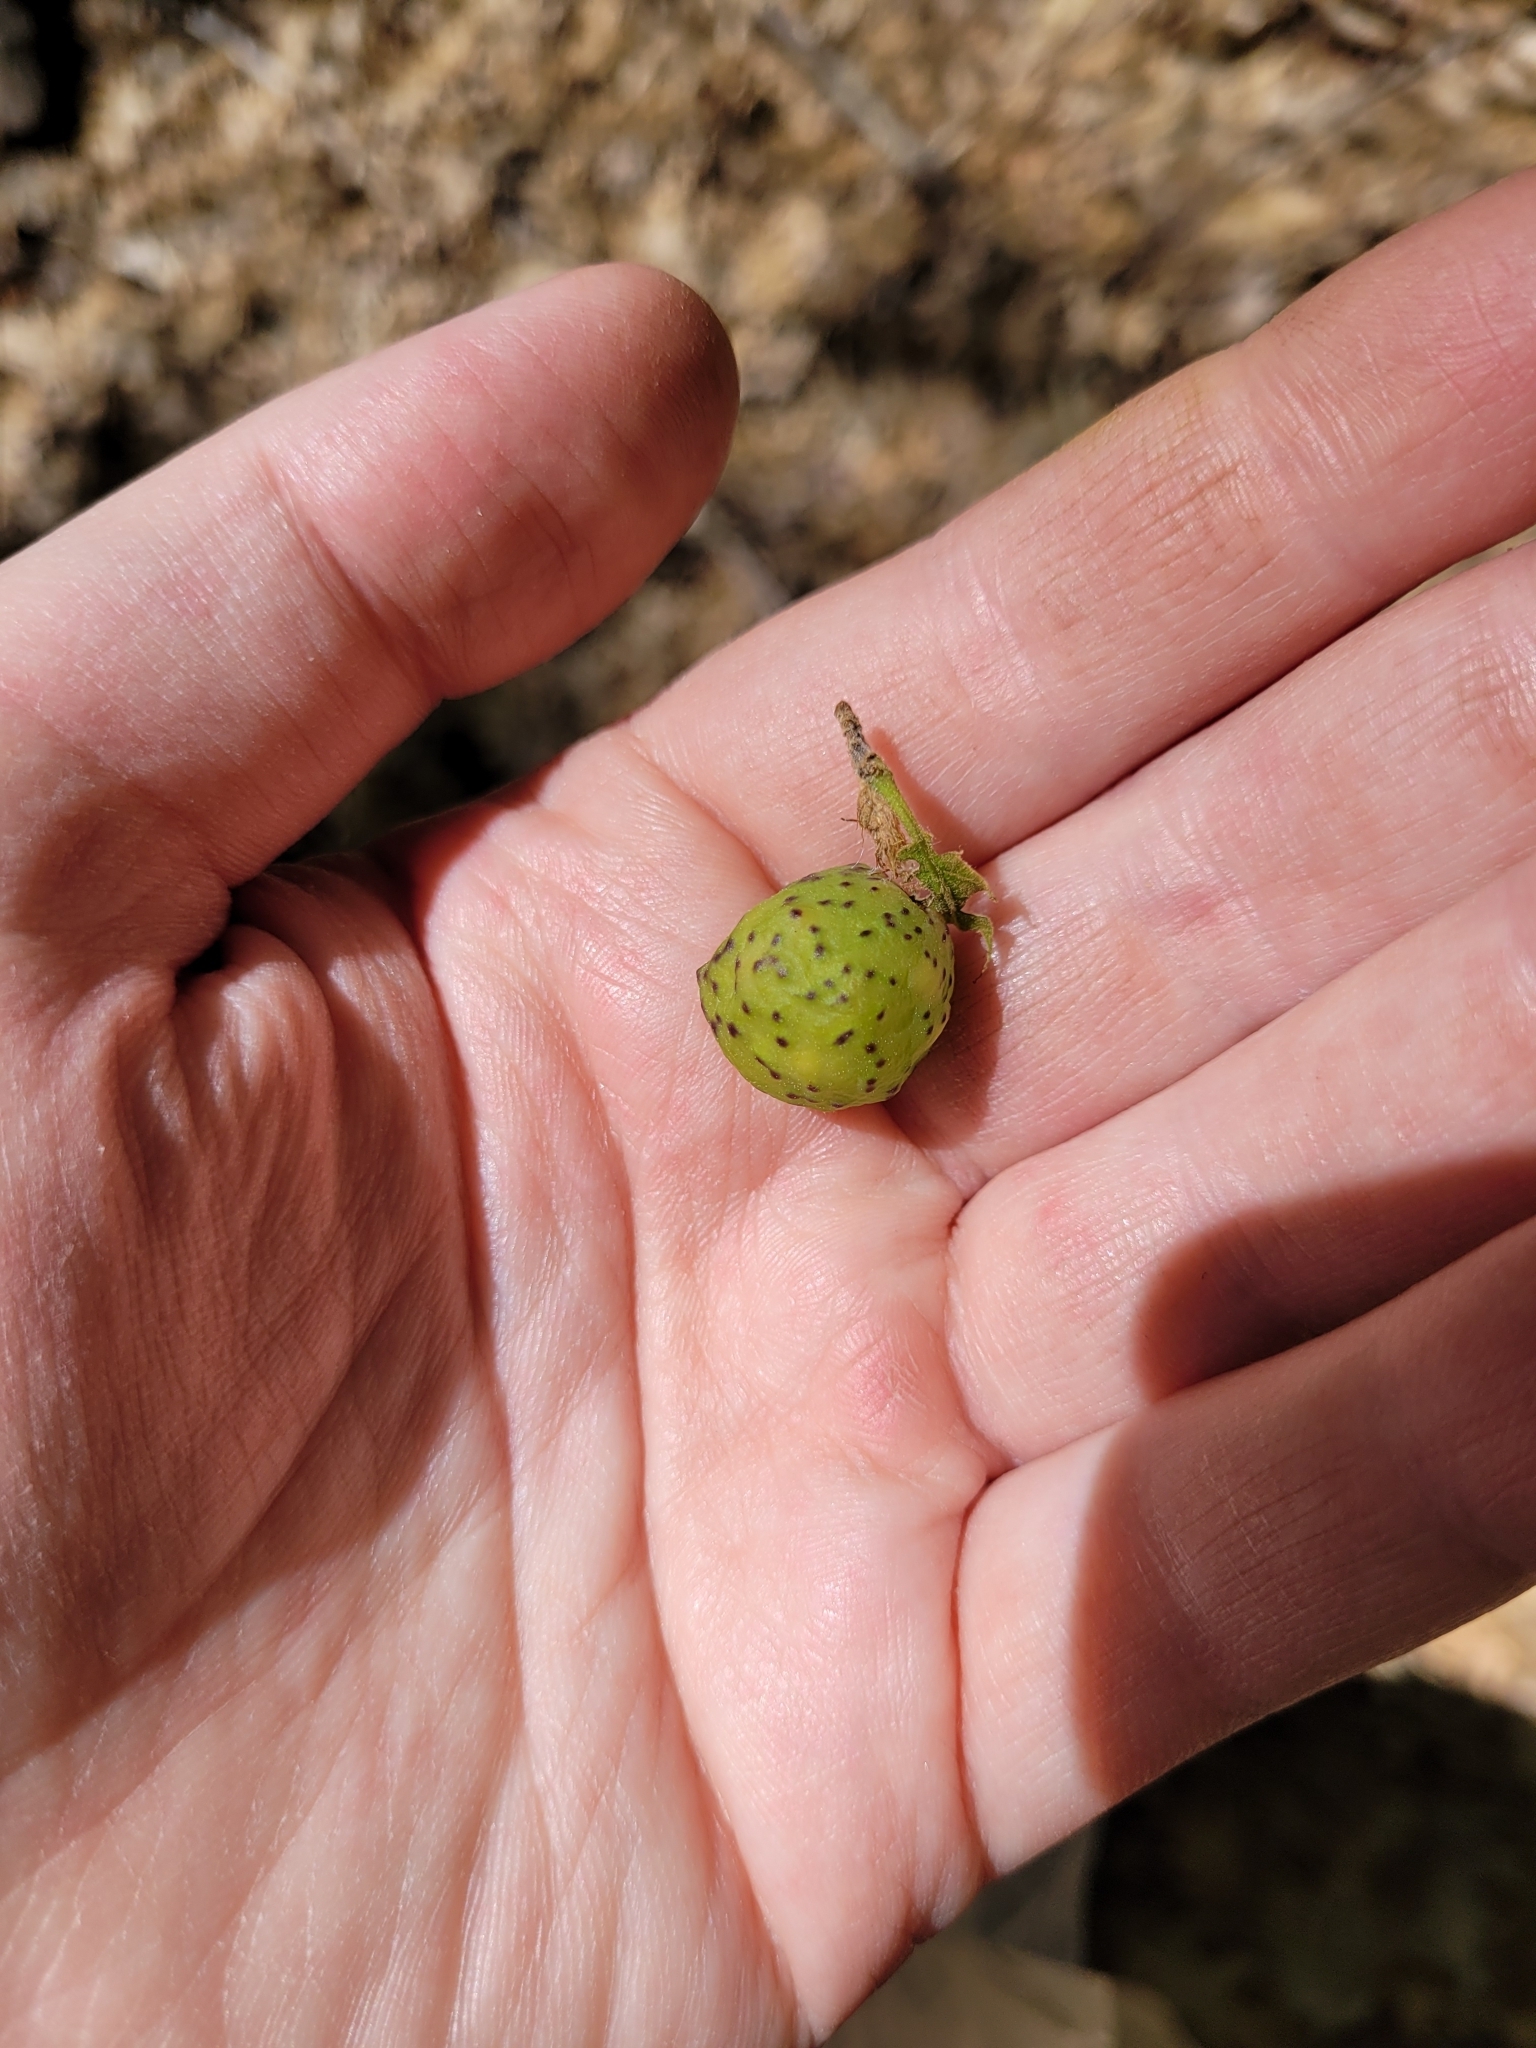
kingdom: Animalia
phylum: Arthropoda
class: Insecta
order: Hymenoptera
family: Cynipidae
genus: Amphibolips
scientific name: Amphibolips
